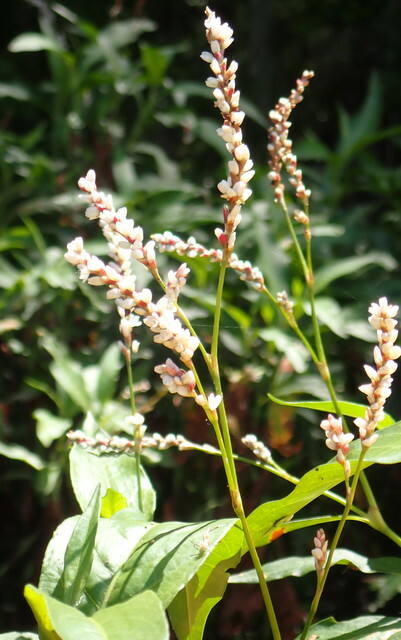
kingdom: Plantae
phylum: Tracheophyta
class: Magnoliopsida
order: Caryophyllales
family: Polygonaceae
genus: Persicaria
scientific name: Persicaria hydropiperoides
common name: Swamp smartweed
